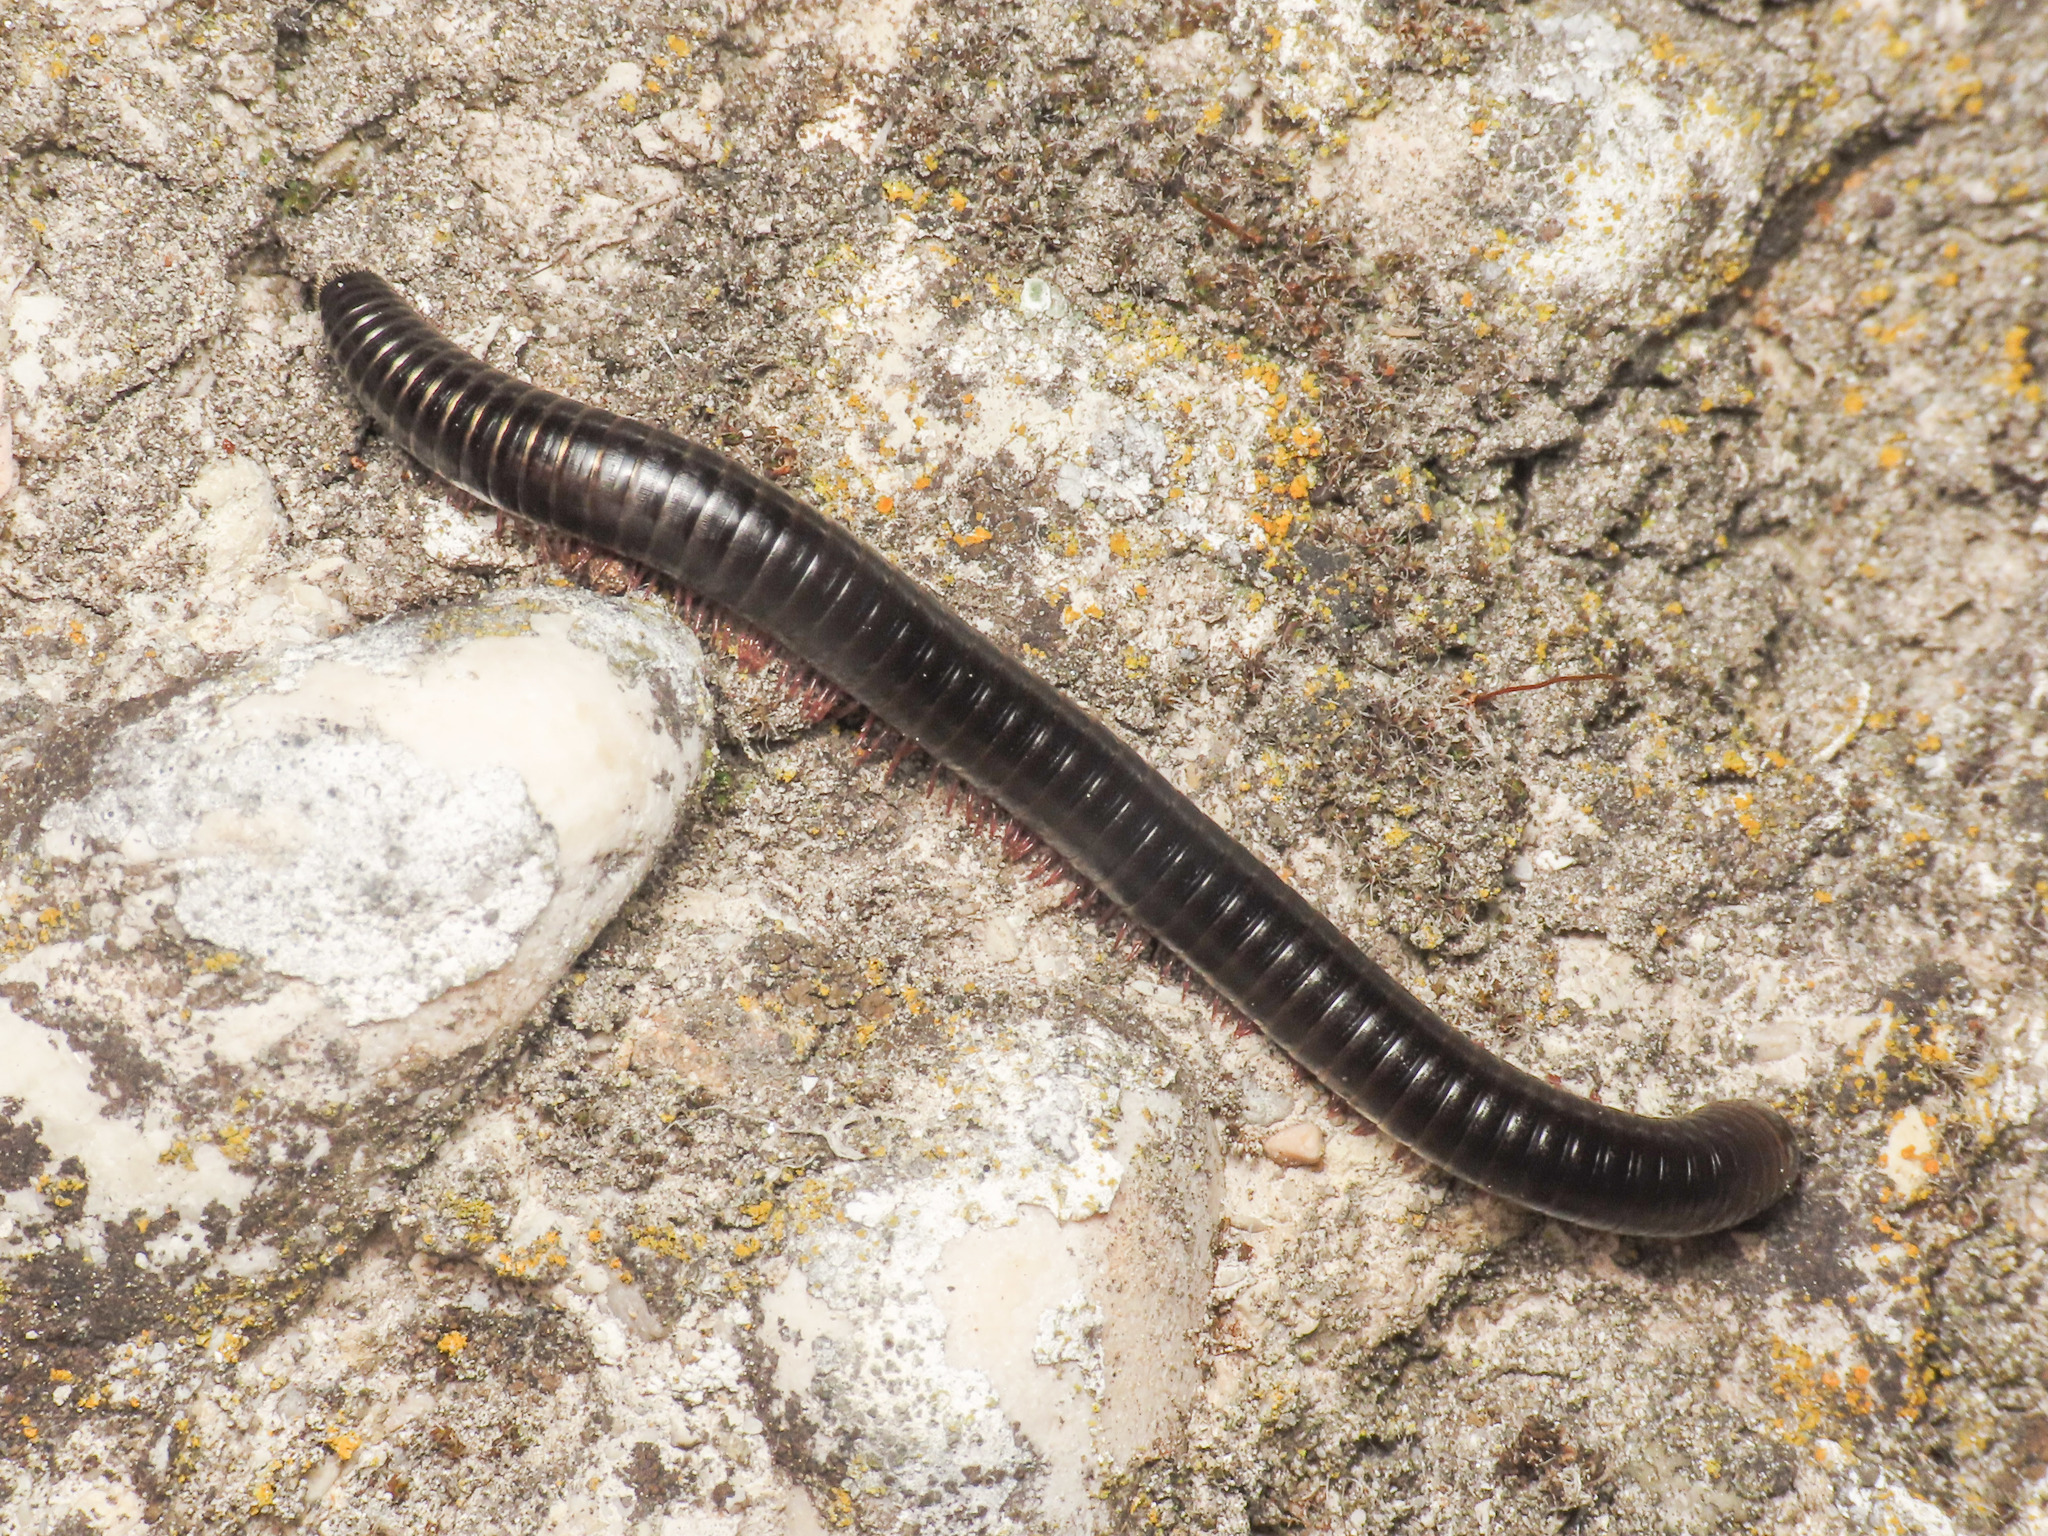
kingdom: Animalia
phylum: Arthropoda
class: Diplopoda
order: Julida
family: Julidae
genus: Pachyiulus
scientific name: Pachyiulus oenologus
